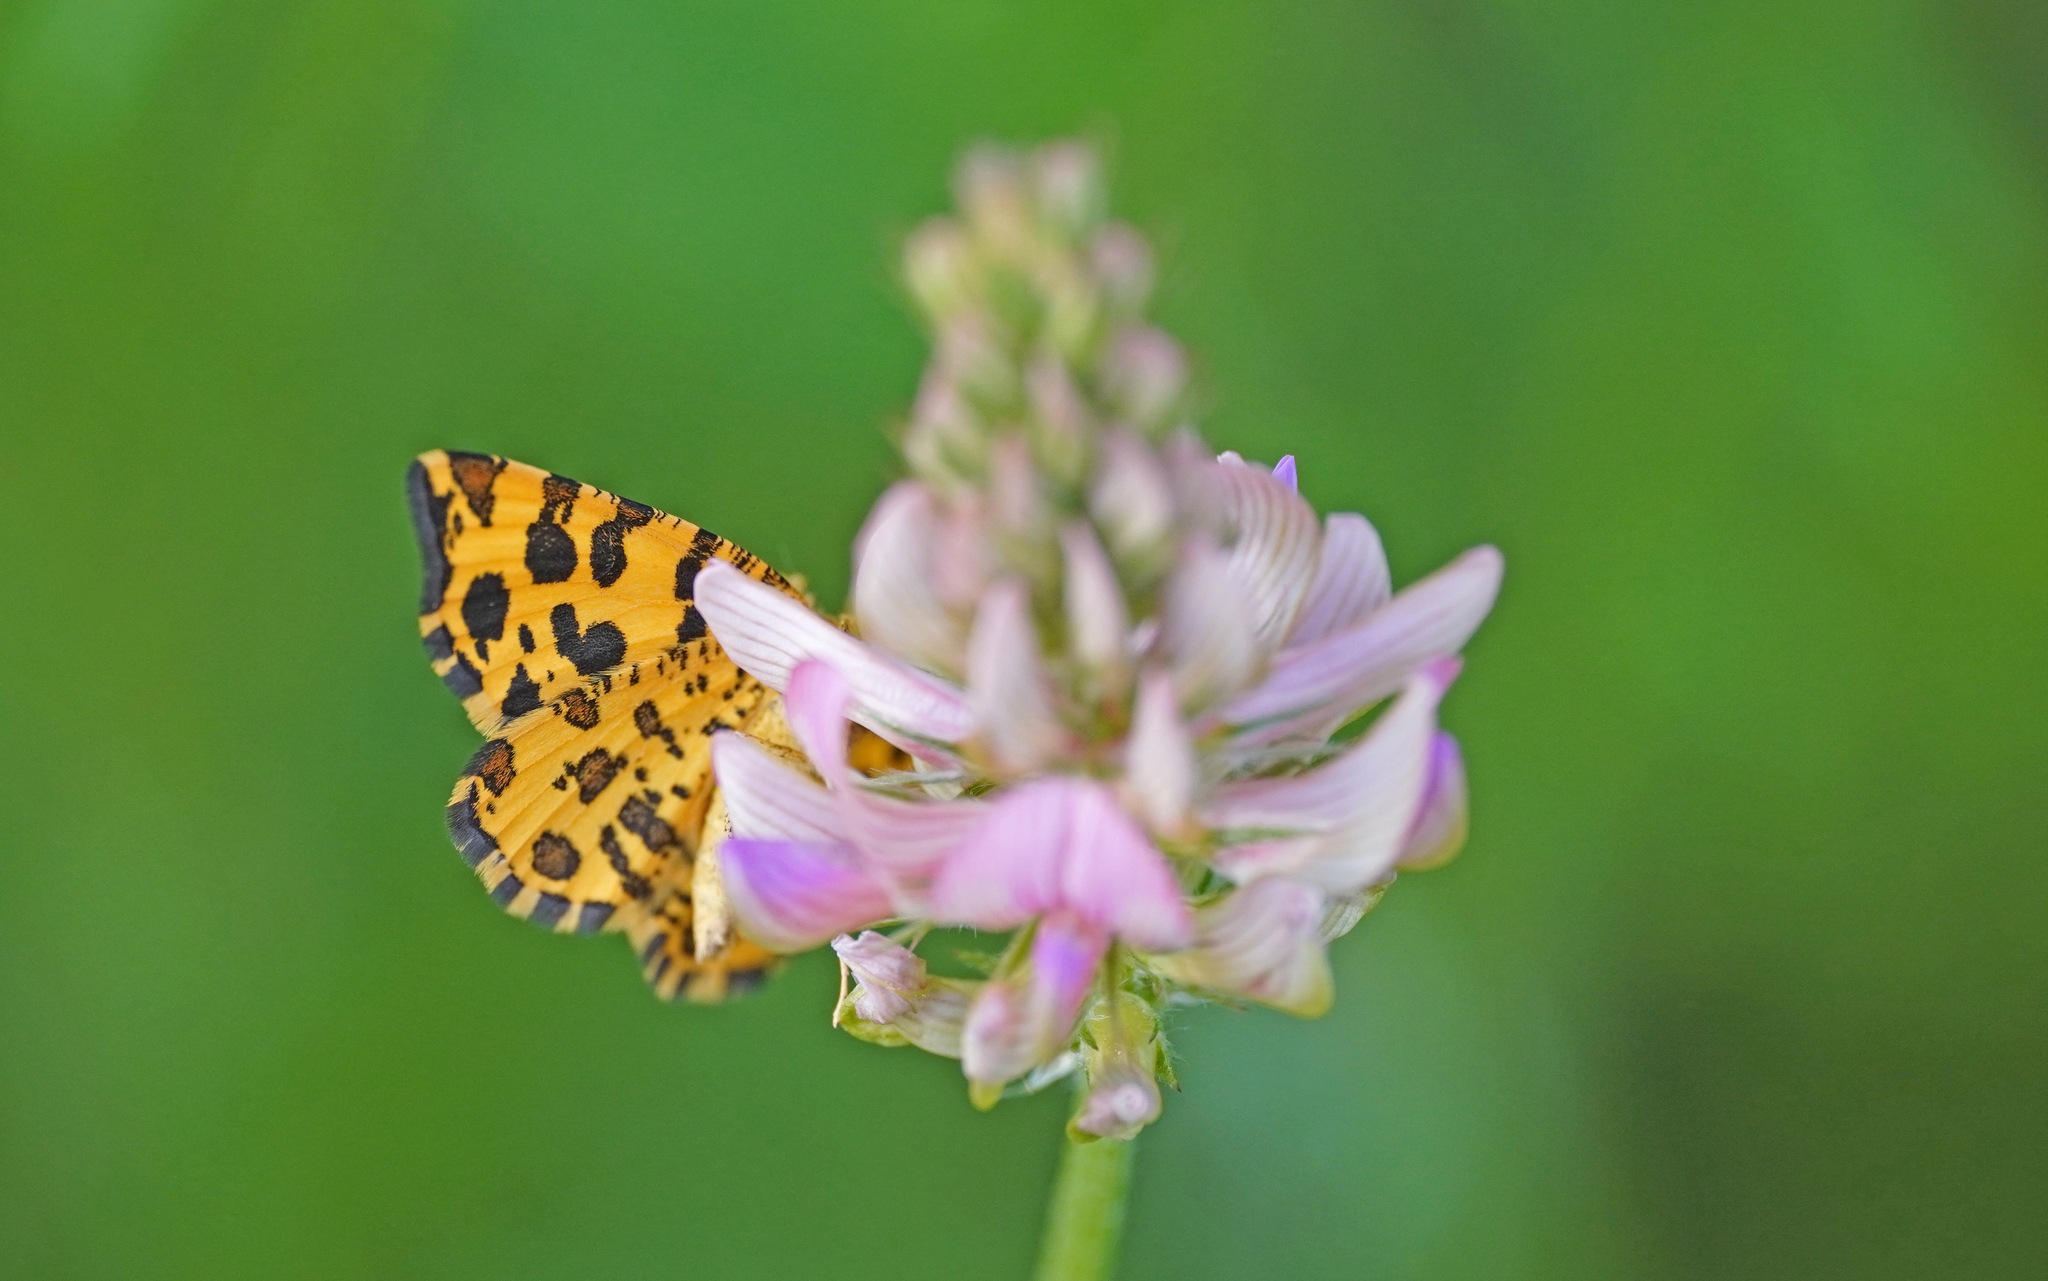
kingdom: Animalia
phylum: Arthropoda
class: Insecta
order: Lepidoptera
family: Geometridae
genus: Pseudopanthera
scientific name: Pseudopanthera macularia
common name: Speckled yellow
